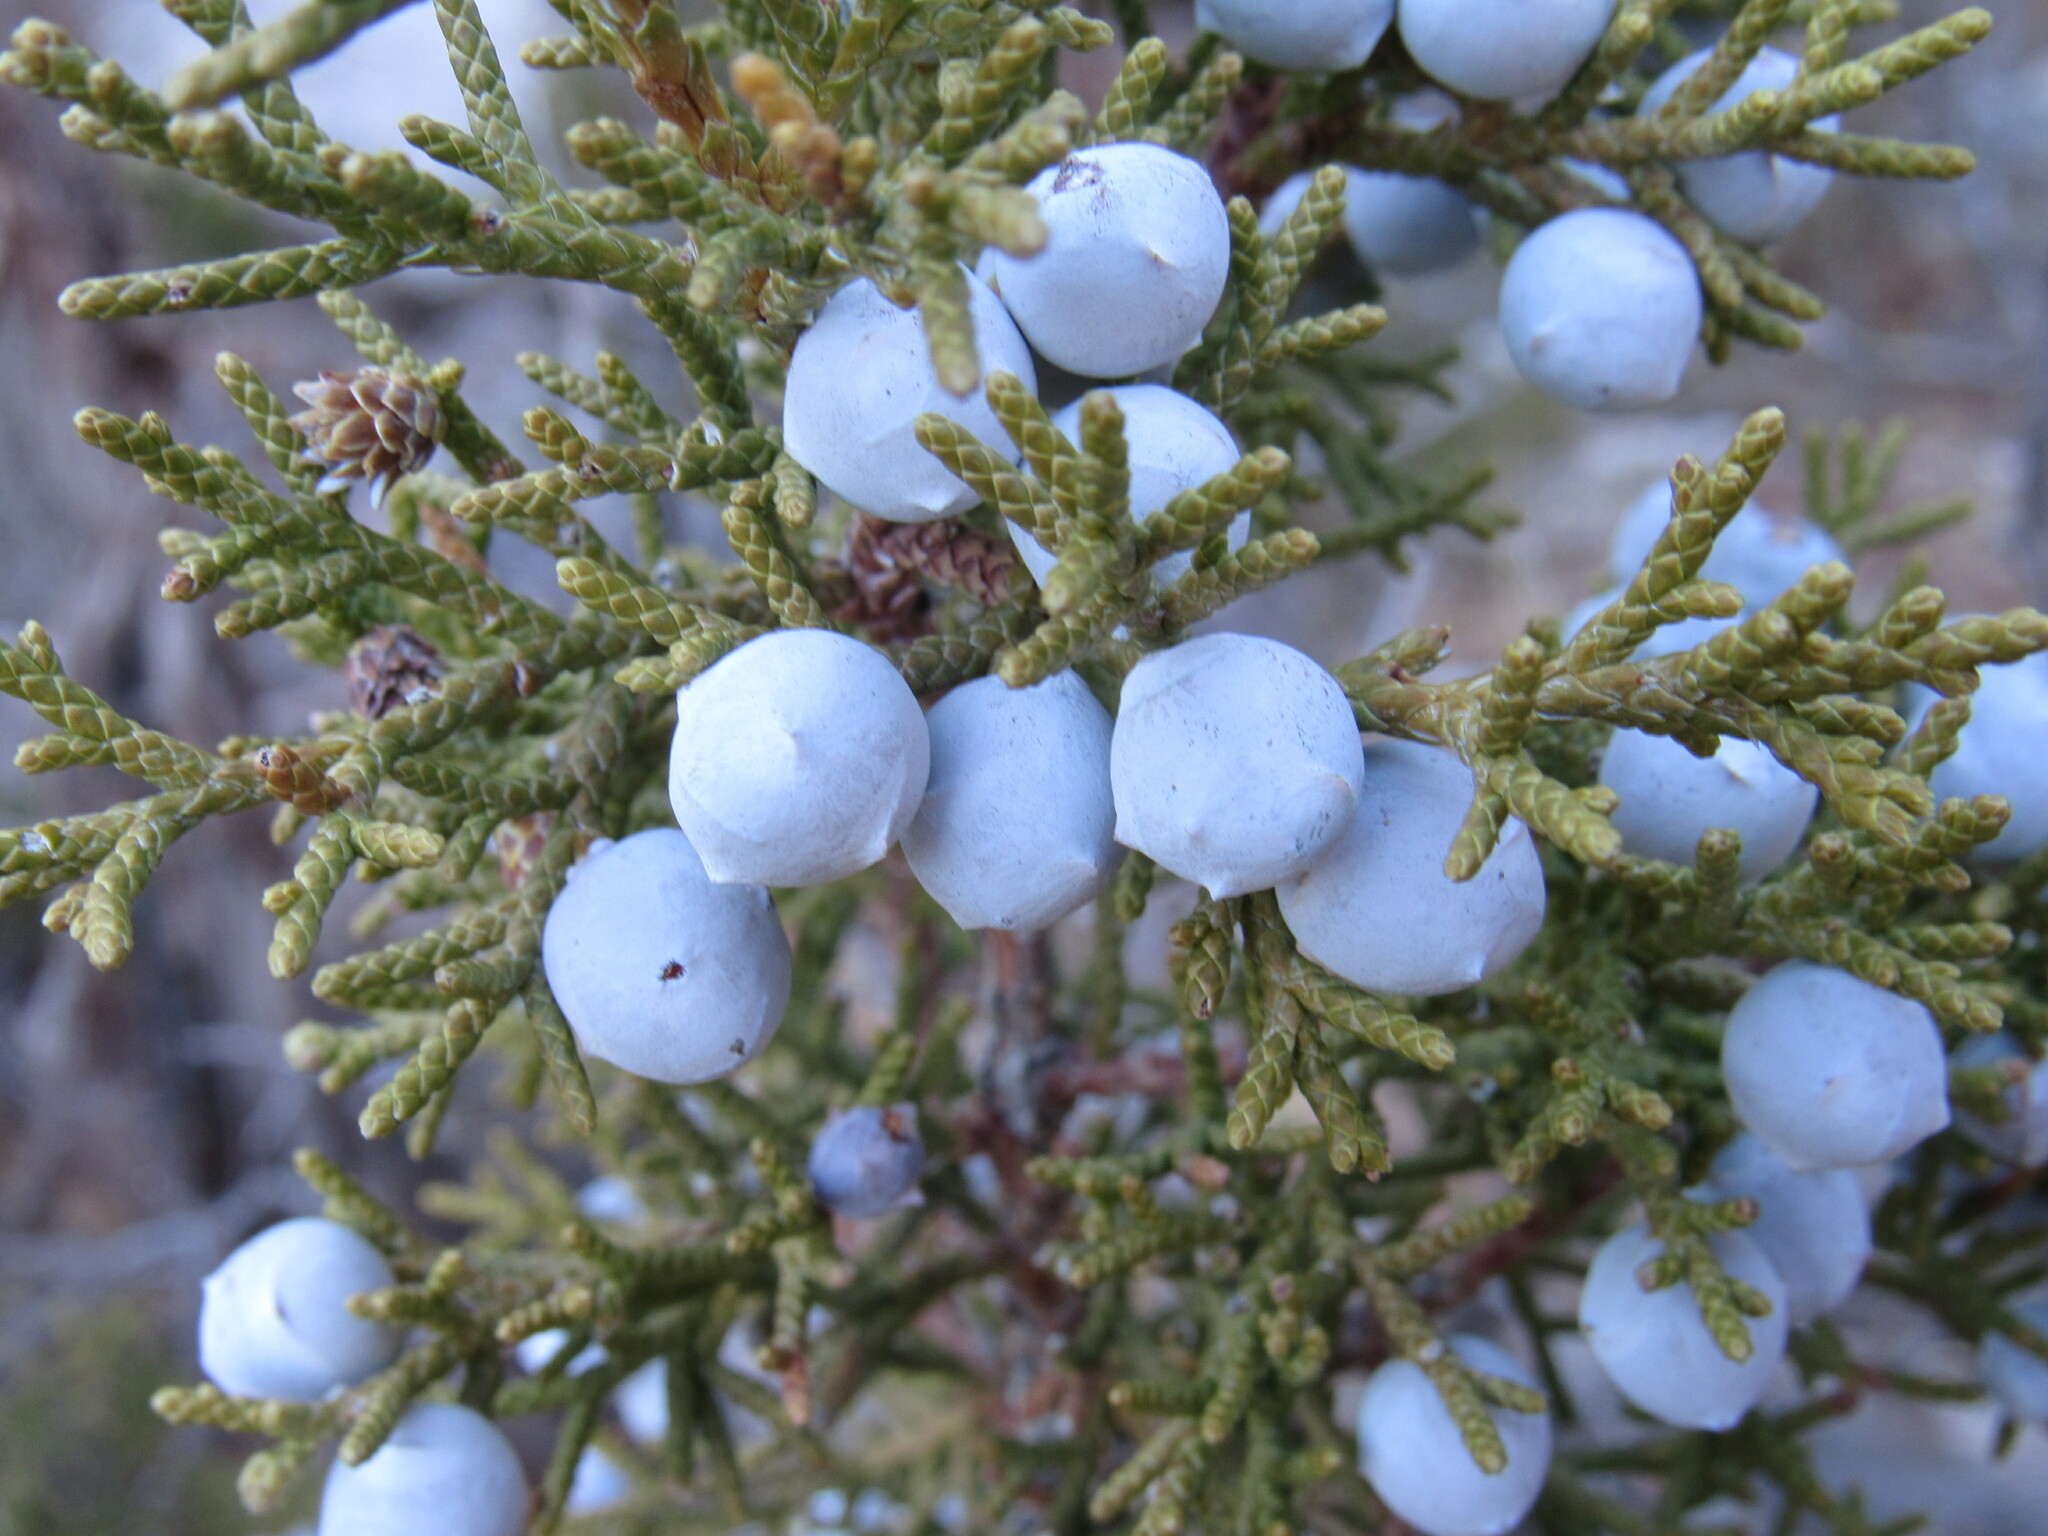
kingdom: Plantae
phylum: Tracheophyta
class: Pinopsida
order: Pinales
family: Cupressaceae
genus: Juniperus
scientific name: Juniperus osteosperma
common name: Utah juniper
